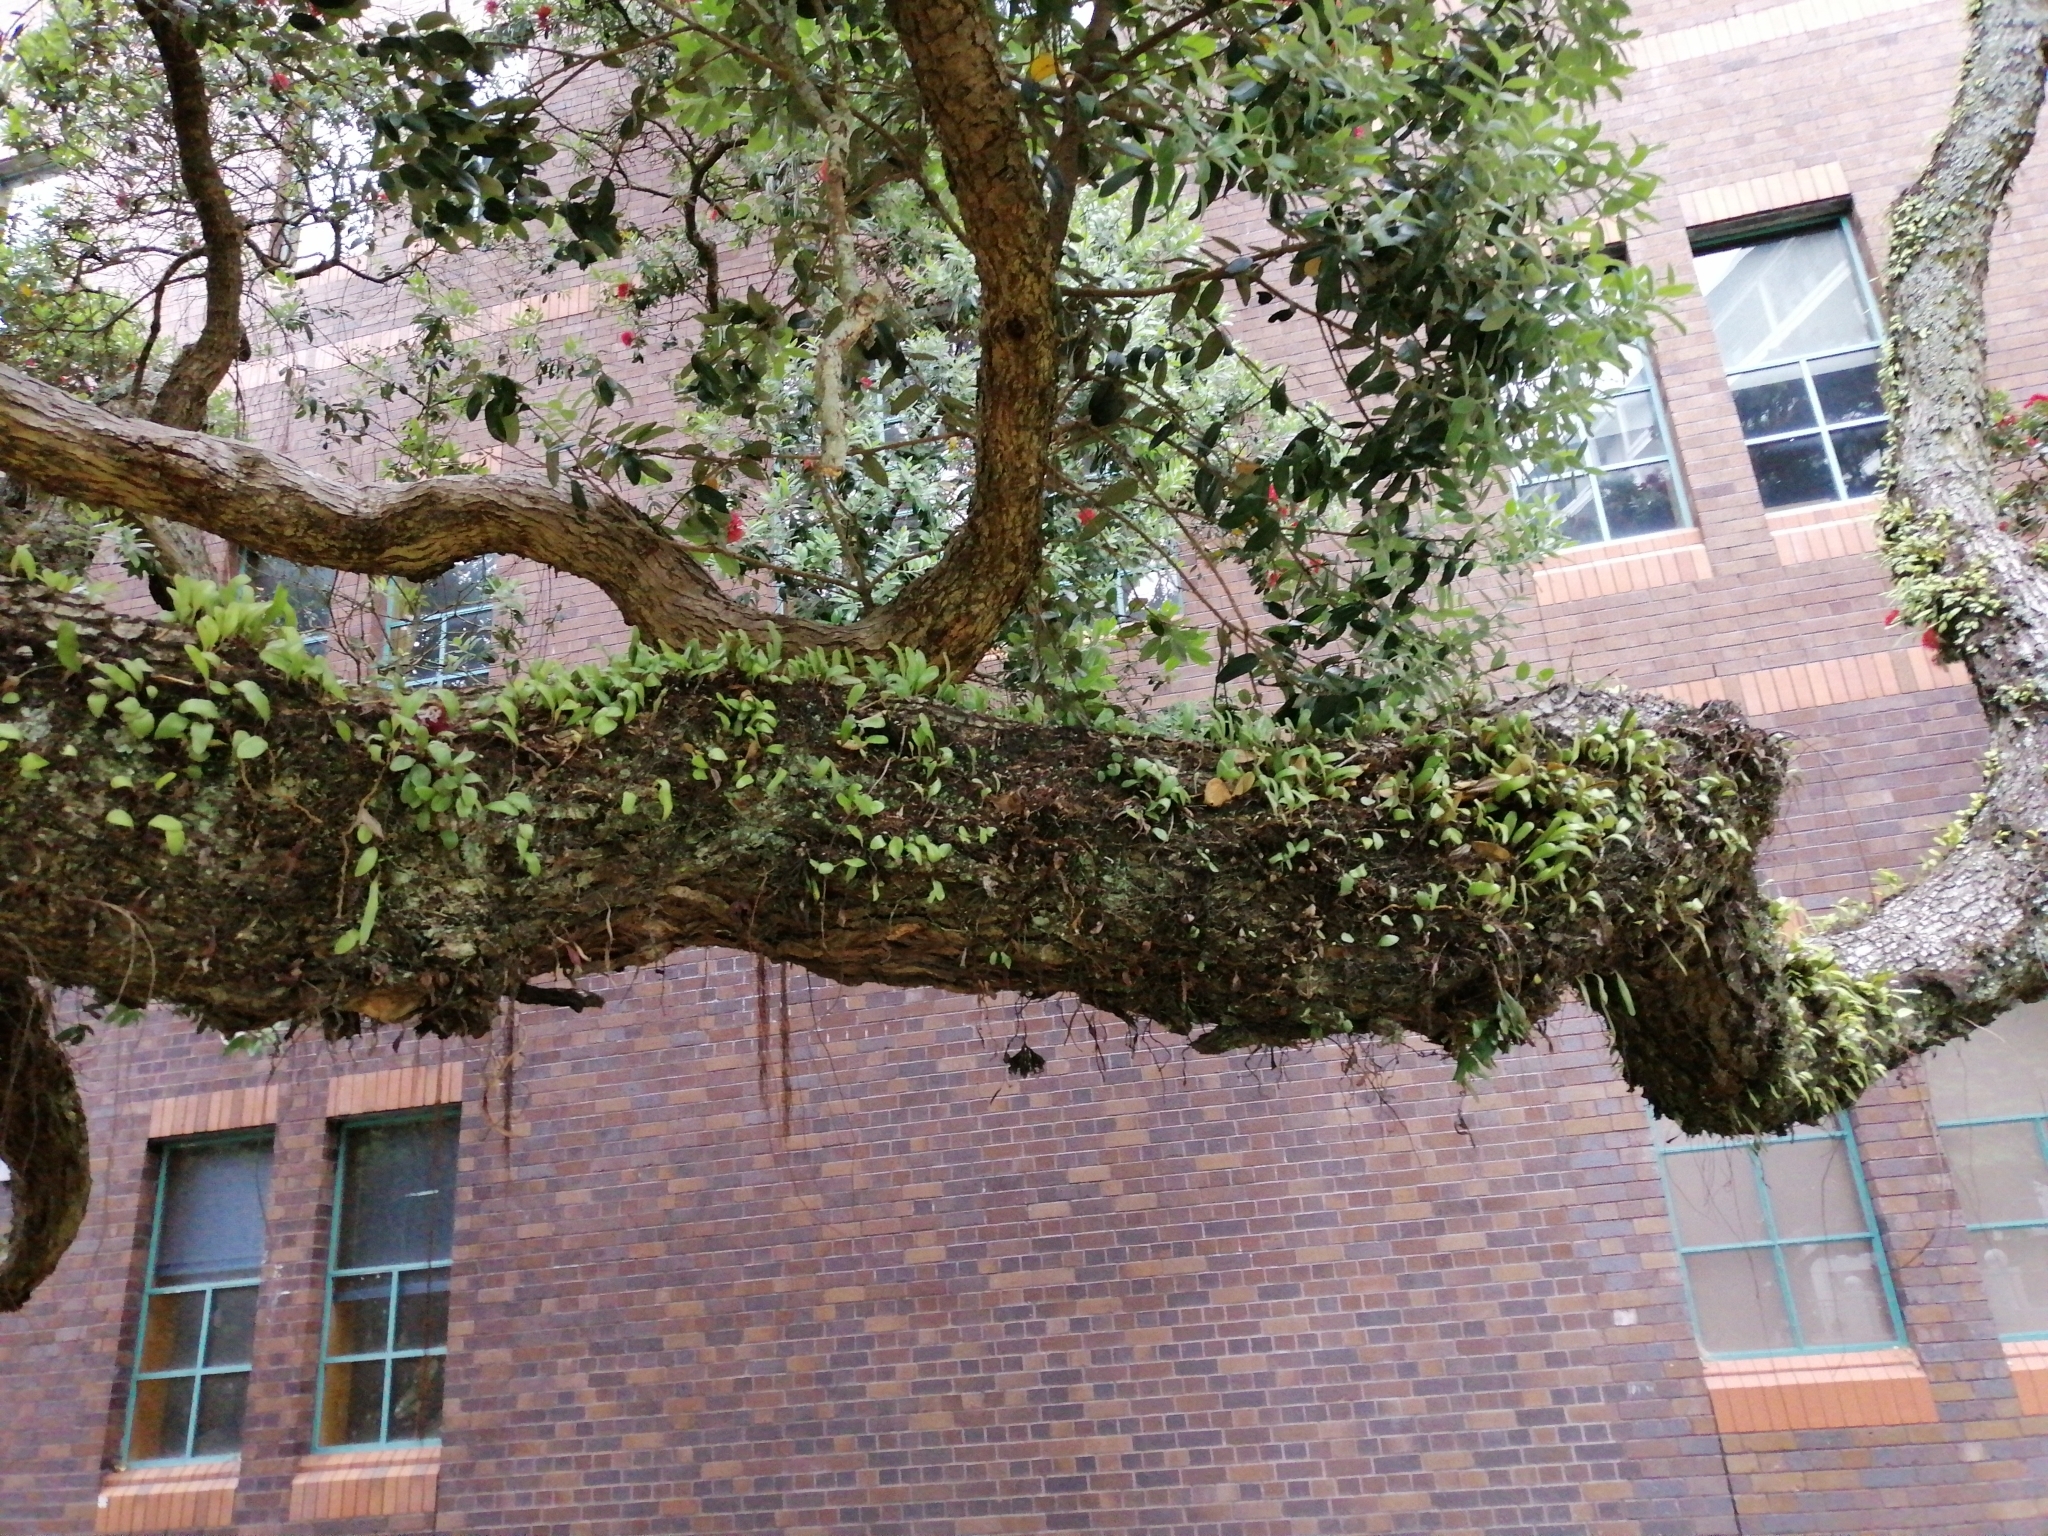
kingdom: Plantae
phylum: Tracheophyta
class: Polypodiopsida
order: Polypodiales
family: Polypodiaceae
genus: Pyrrosia
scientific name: Pyrrosia eleagnifolia
